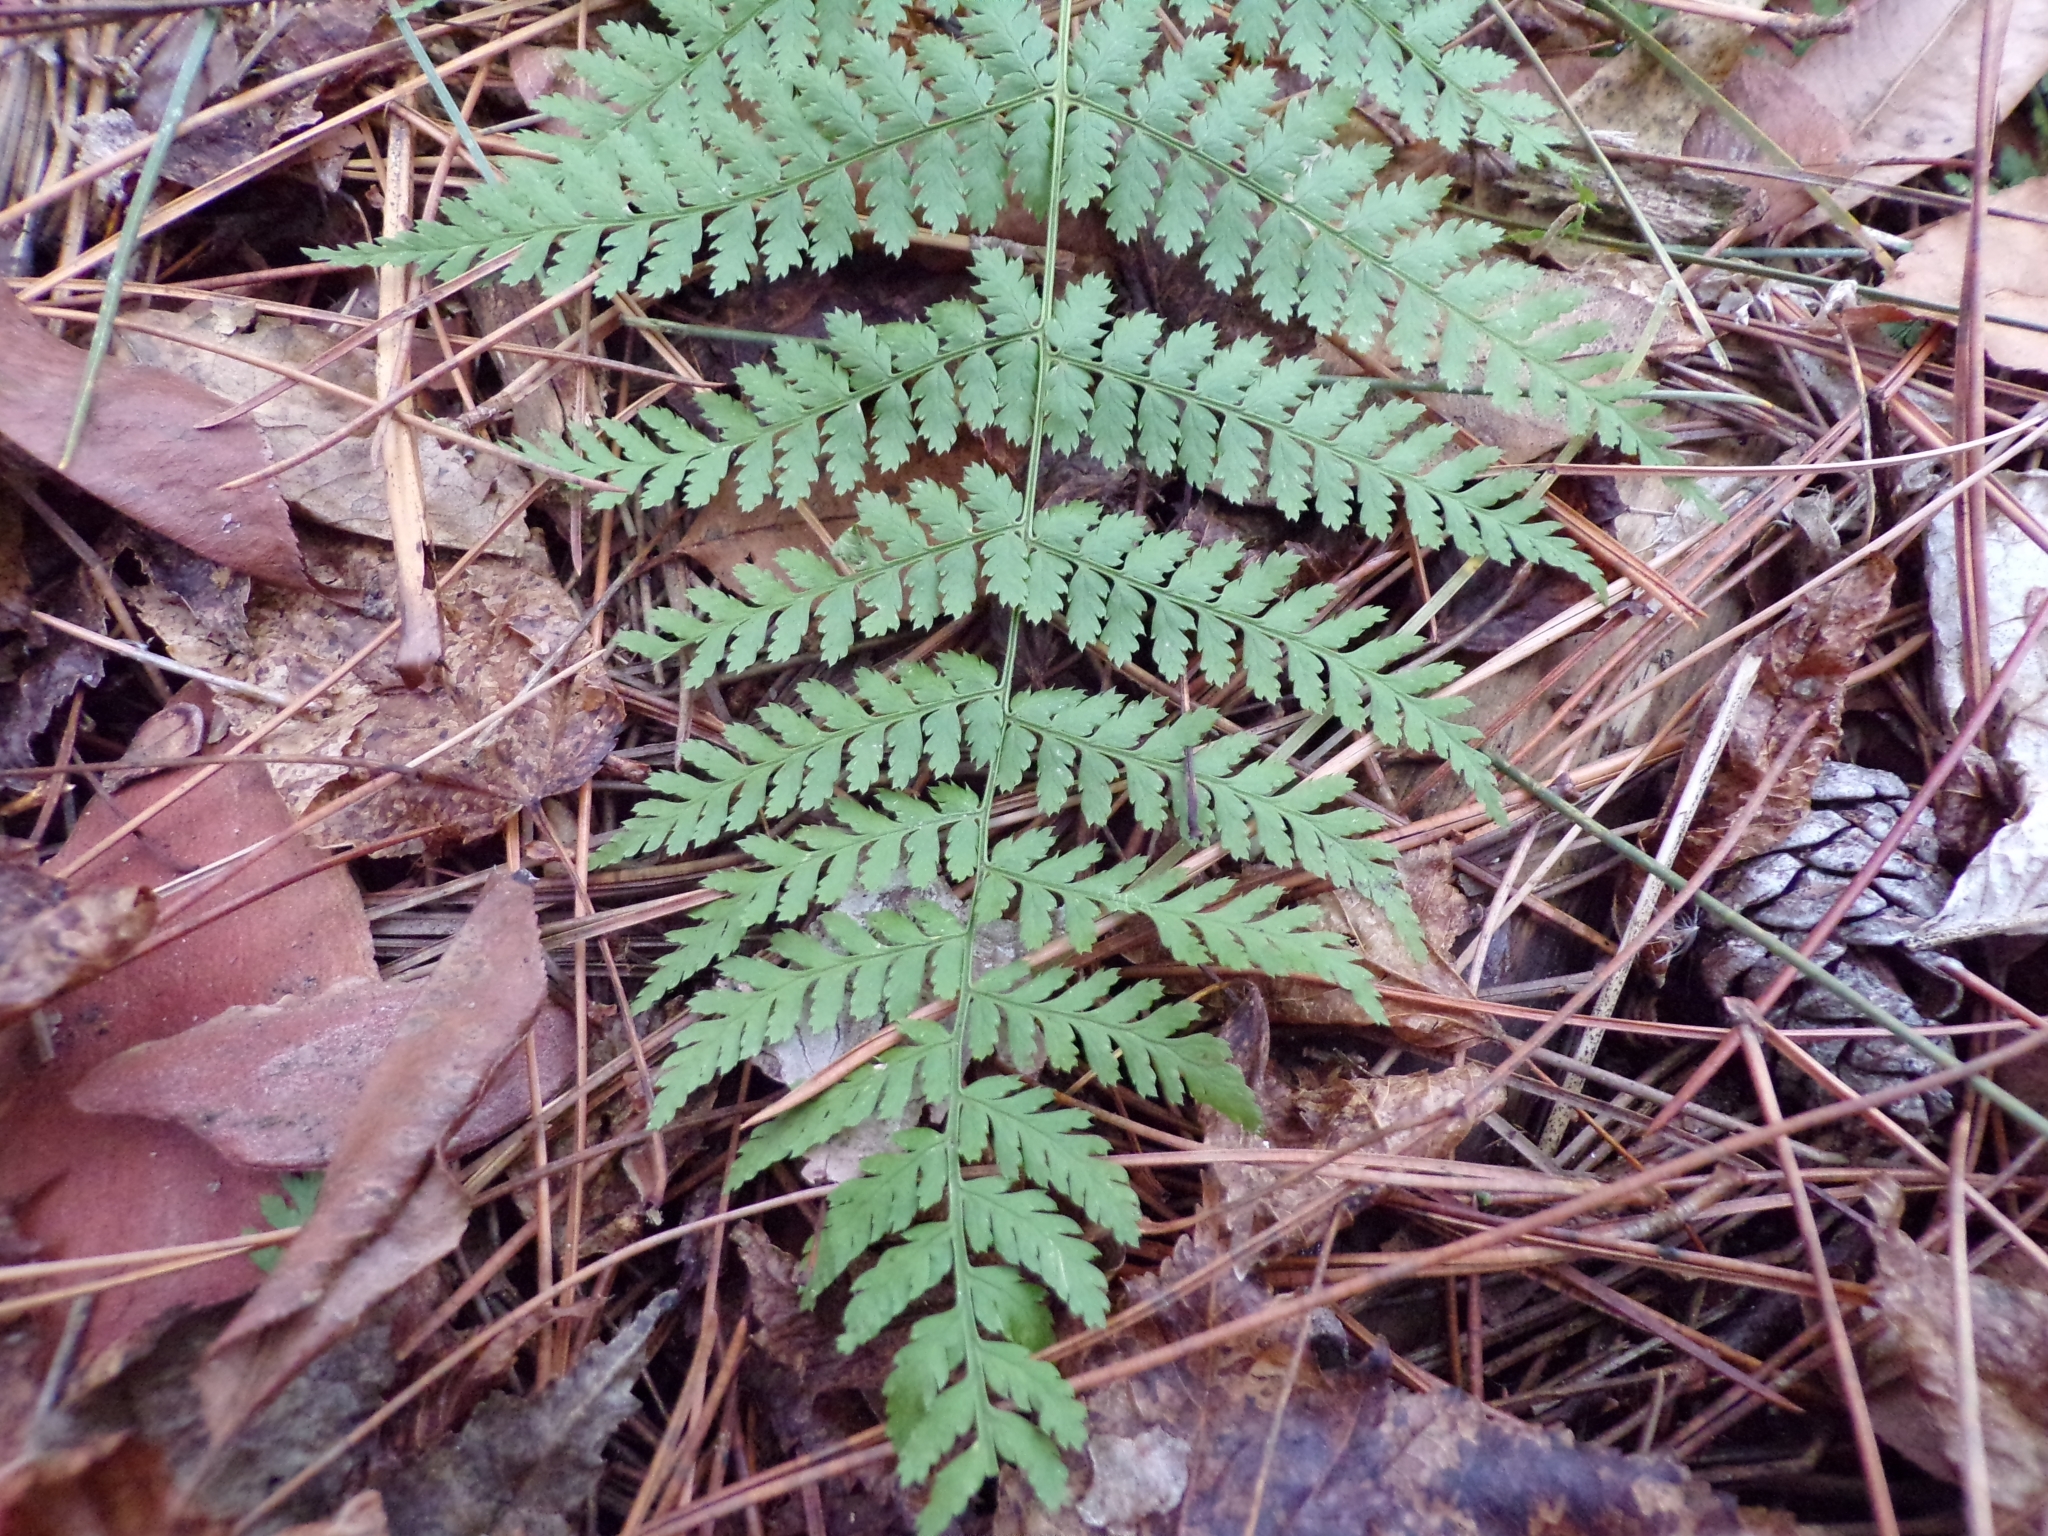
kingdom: Plantae
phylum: Tracheophyta
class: Polypodiopsida
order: Polypodiales
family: Dryopteridaceae
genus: Dryopteris
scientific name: Dryopteris intermedia
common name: Evergreen wood fern
